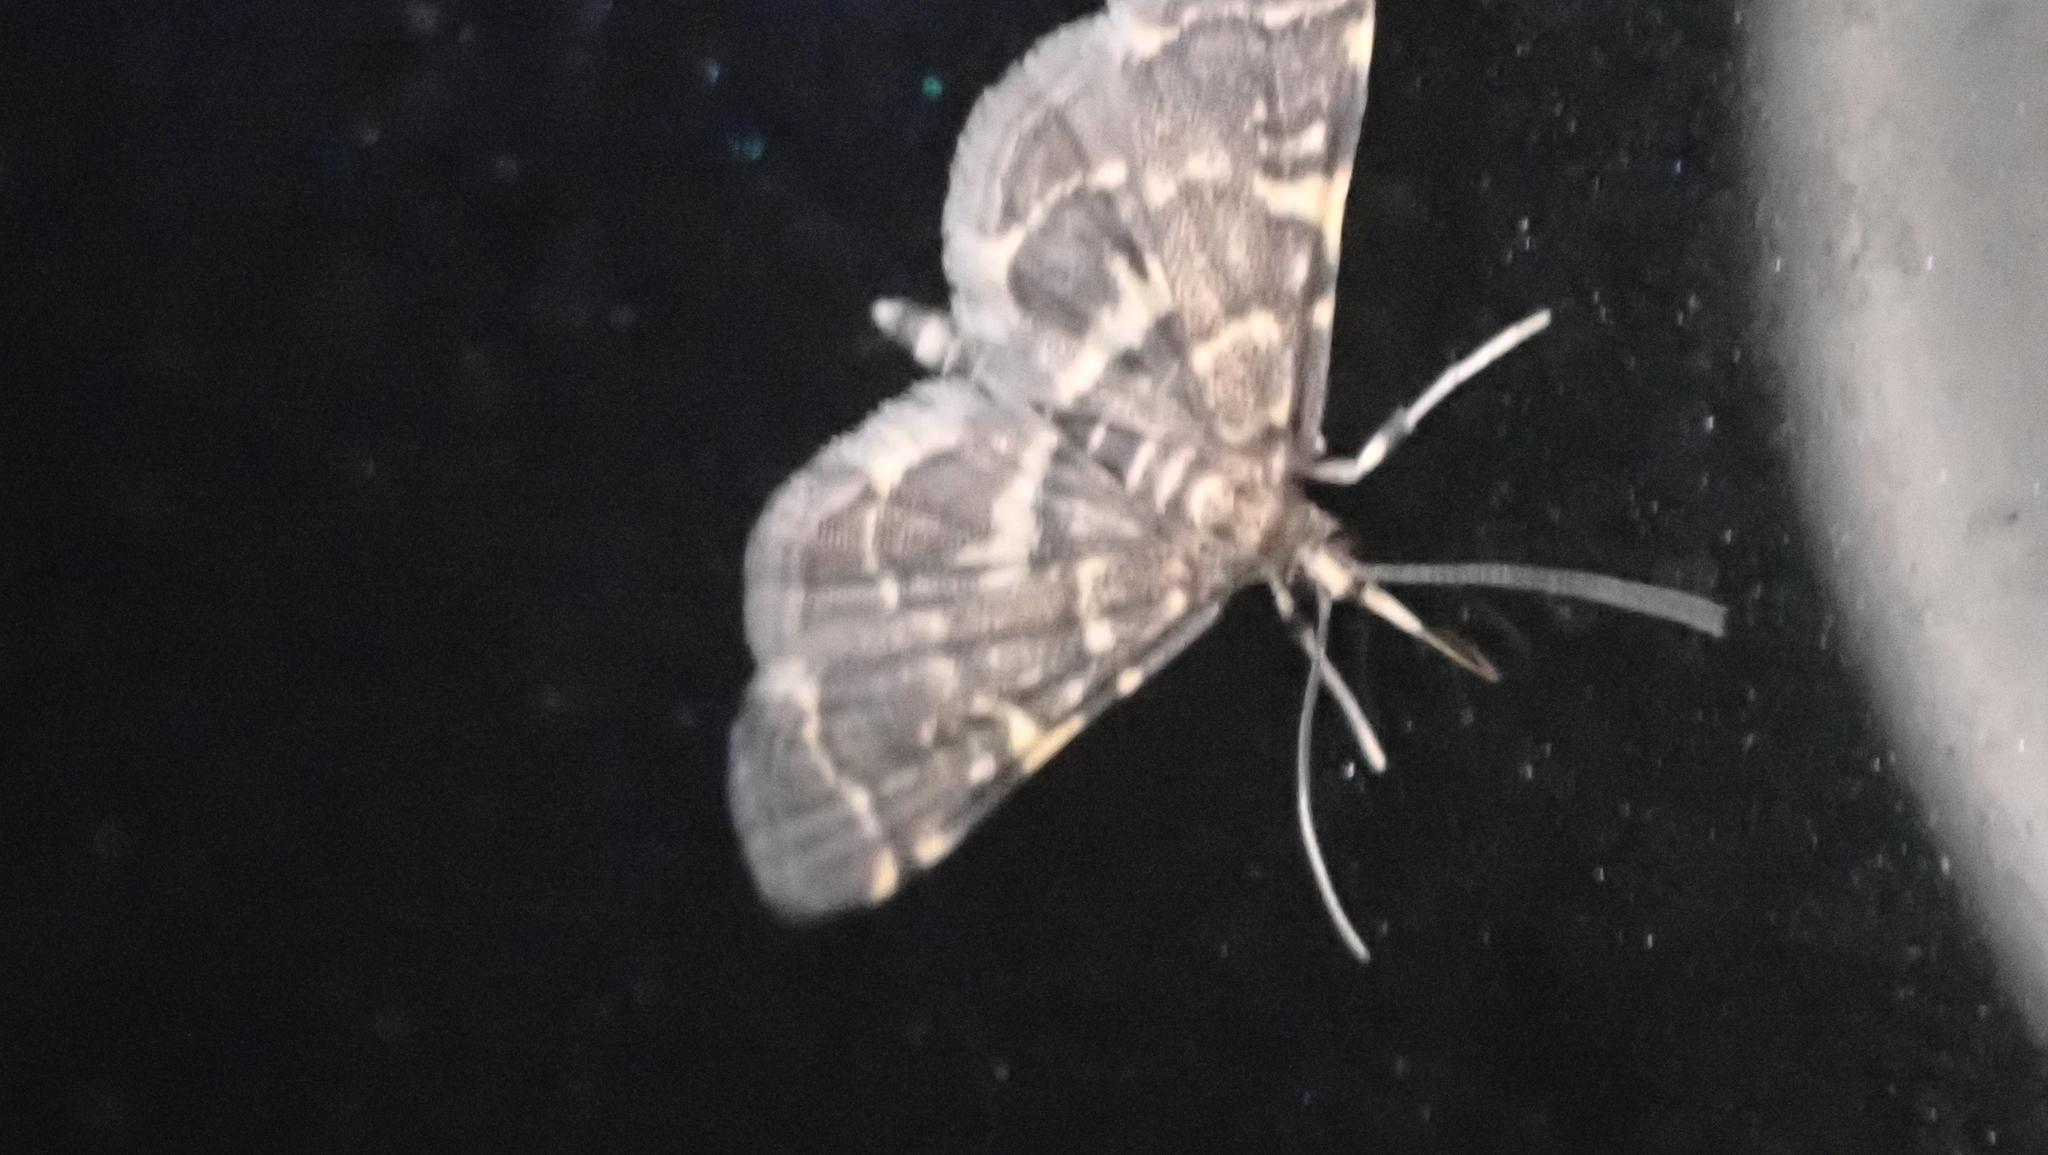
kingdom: Animalia
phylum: Arthropoda
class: Insecta
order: Lepidoptera
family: Crambidae
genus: Anageshna
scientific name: Anageshna primordialis
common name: Yellow-spotted webworm moth
